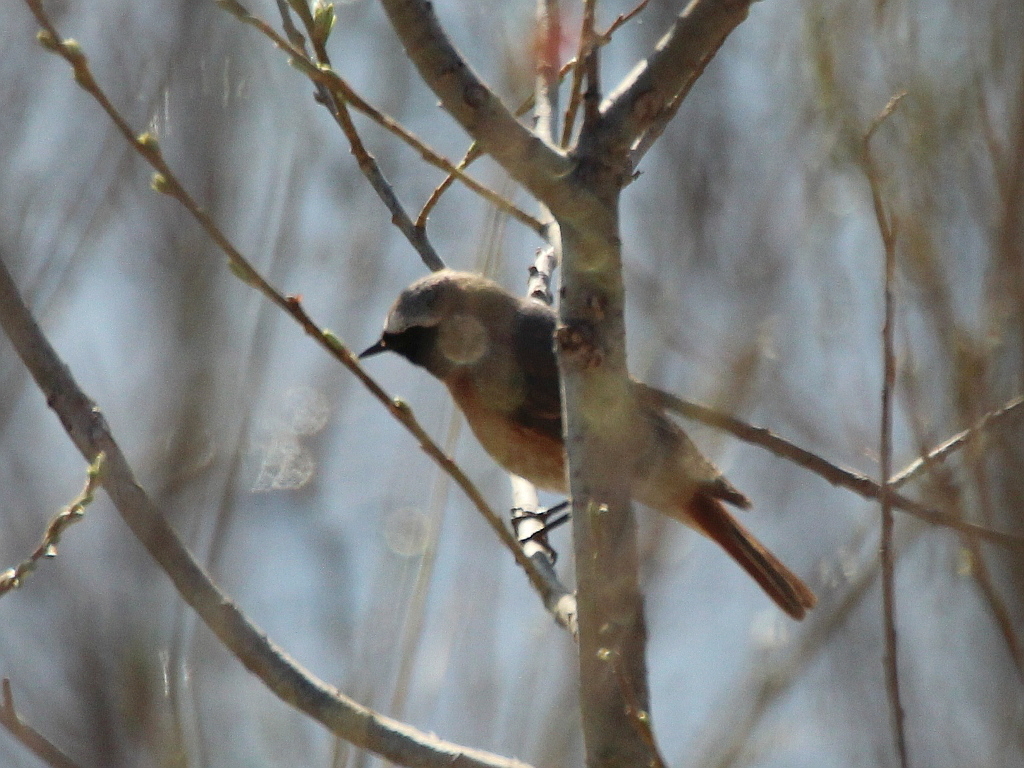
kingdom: Animalia
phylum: Chordata
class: Aves
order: Passeriformes
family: Muscicapidae
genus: Phoenicurus
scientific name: Phoenicurus phoenicurus
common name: Common redstart
